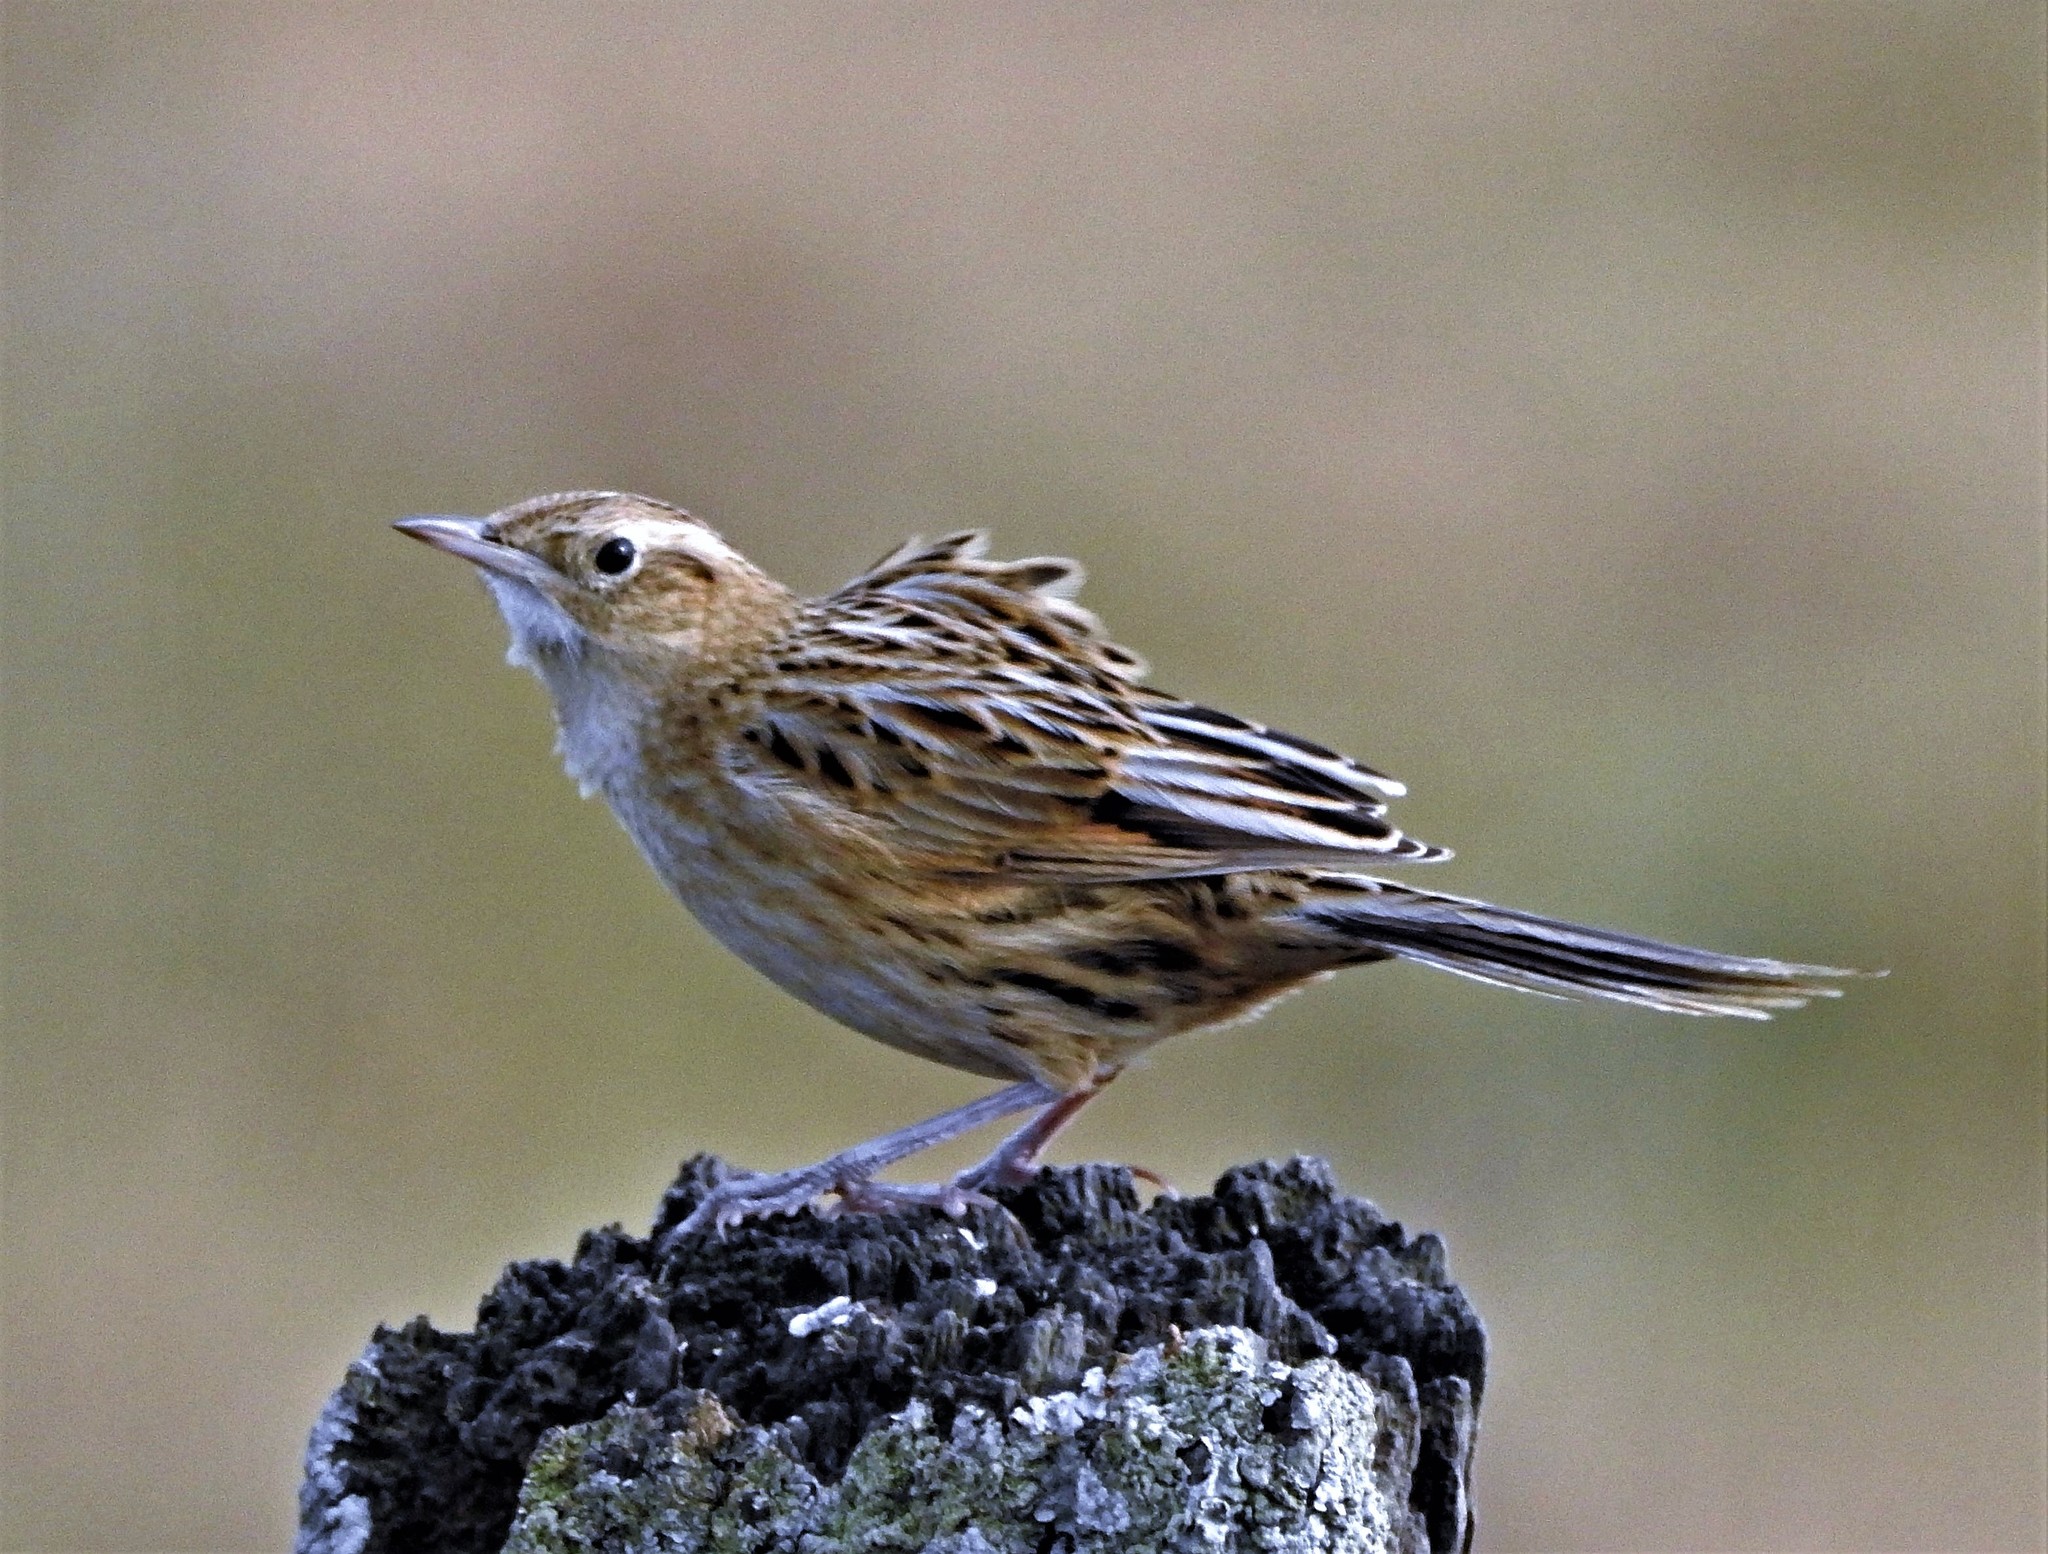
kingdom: Animalia
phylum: Chordata
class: Aves
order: Passeriformes
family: Furnariidae
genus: Asthenes
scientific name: Asthenes hudsoni
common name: Hudson's canastero
